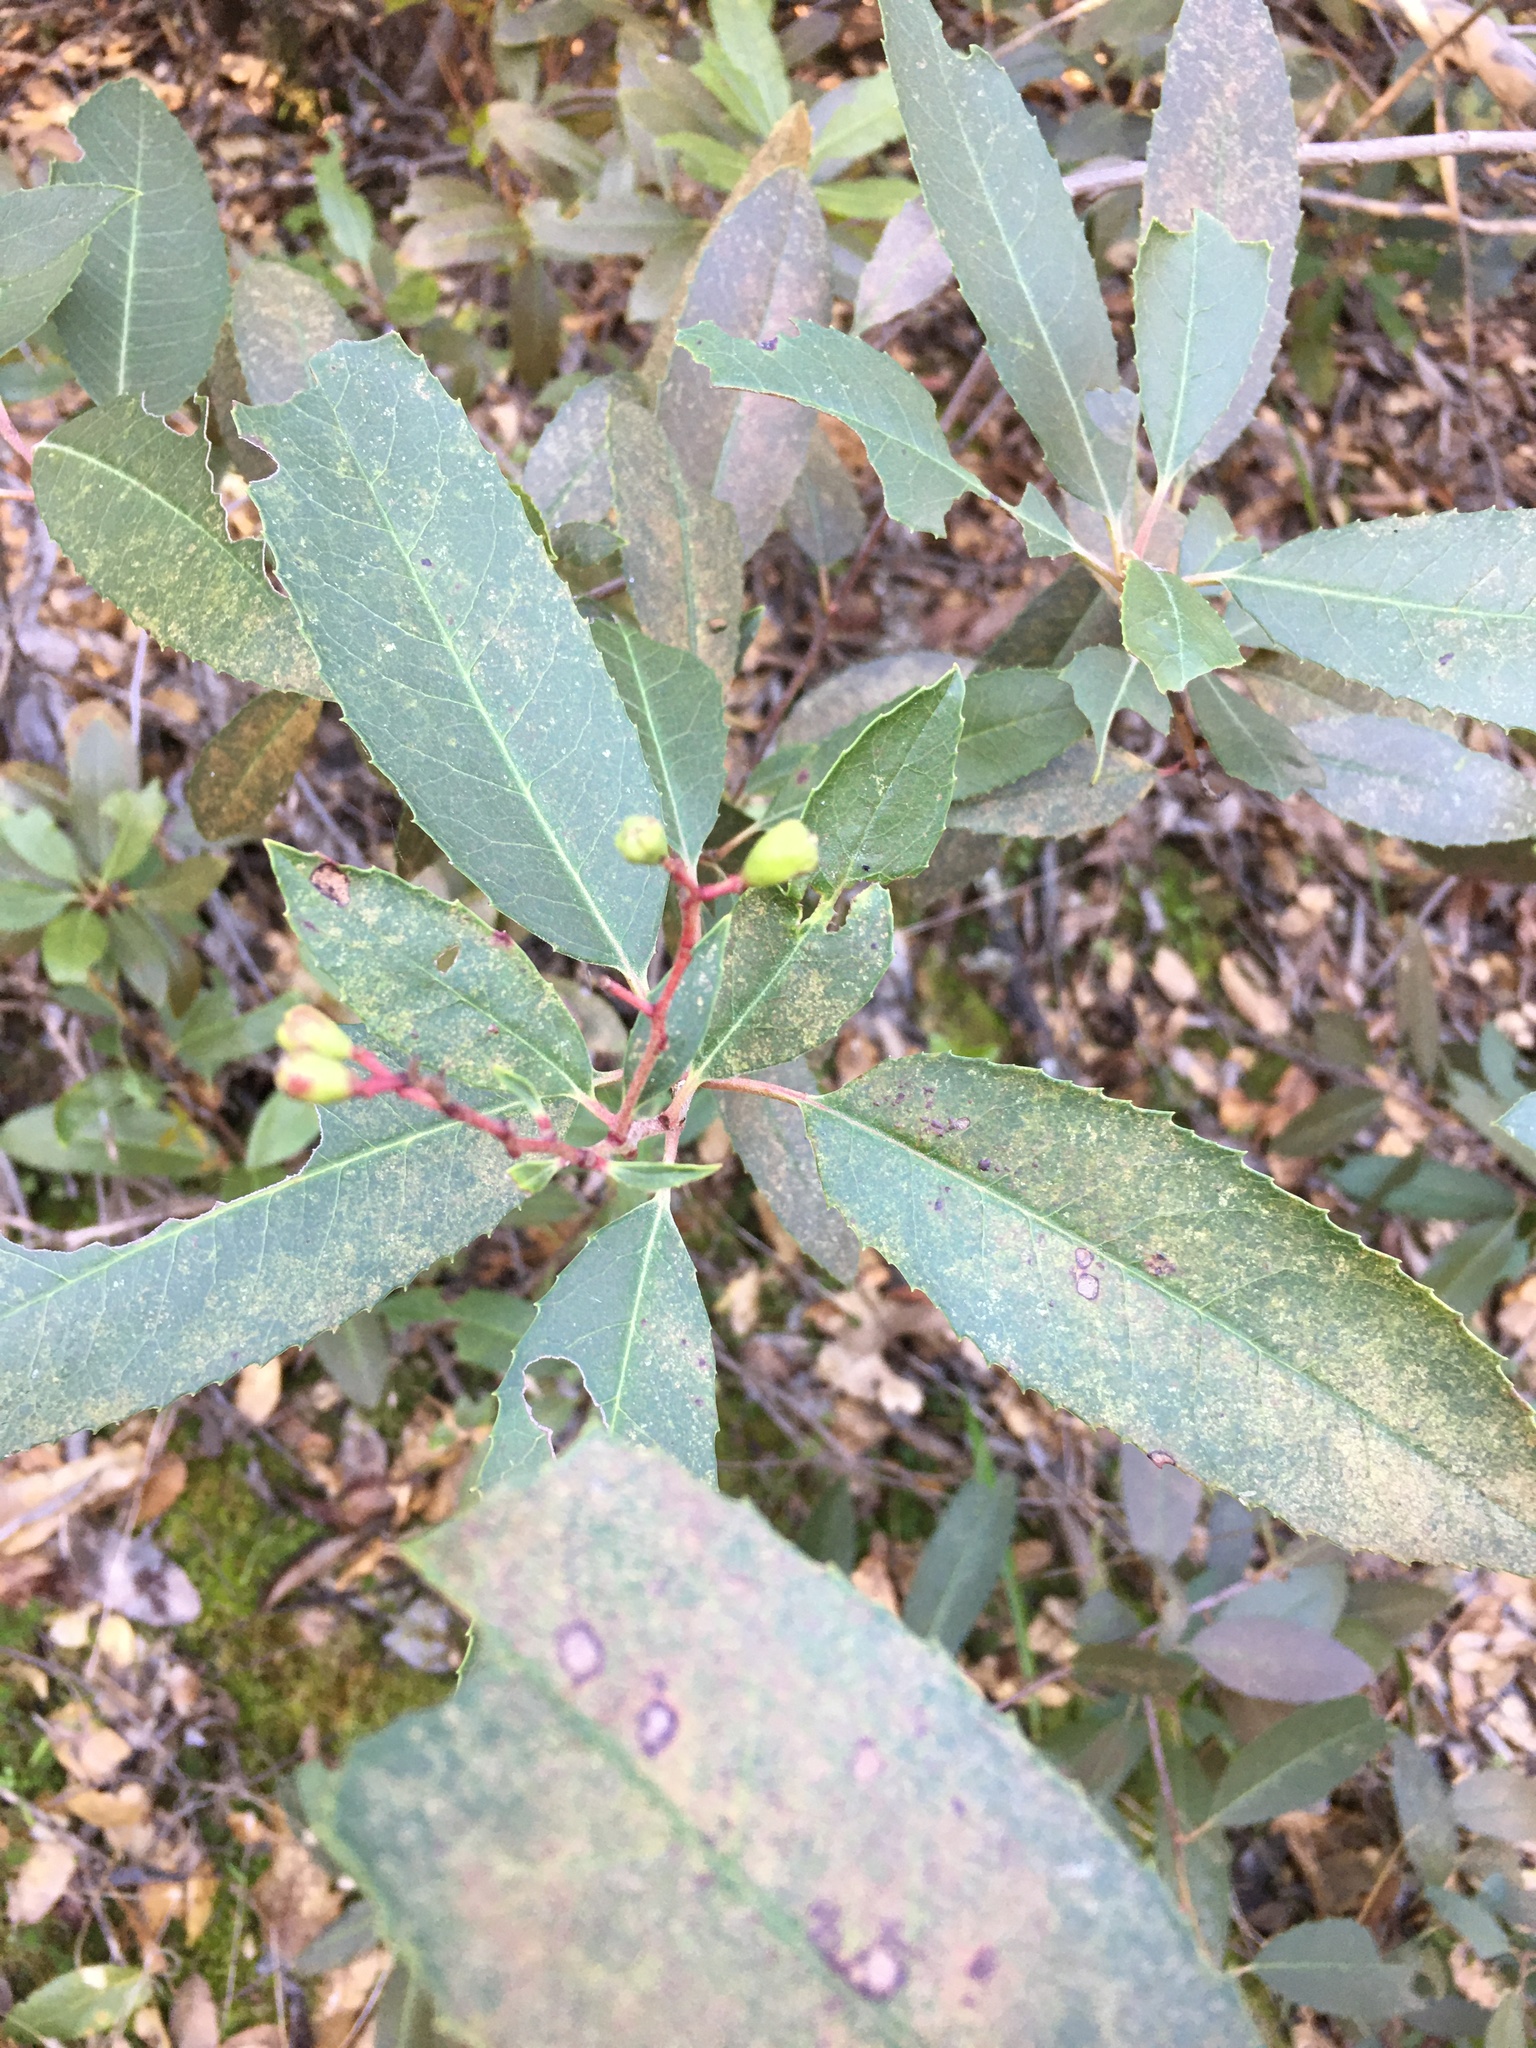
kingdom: Plantae
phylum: Tracheophyta
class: Magnoliopsida
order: Rosales
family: Rosaceae
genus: Heteromeles
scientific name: Heteromeles arbutifolia
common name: California-holly
